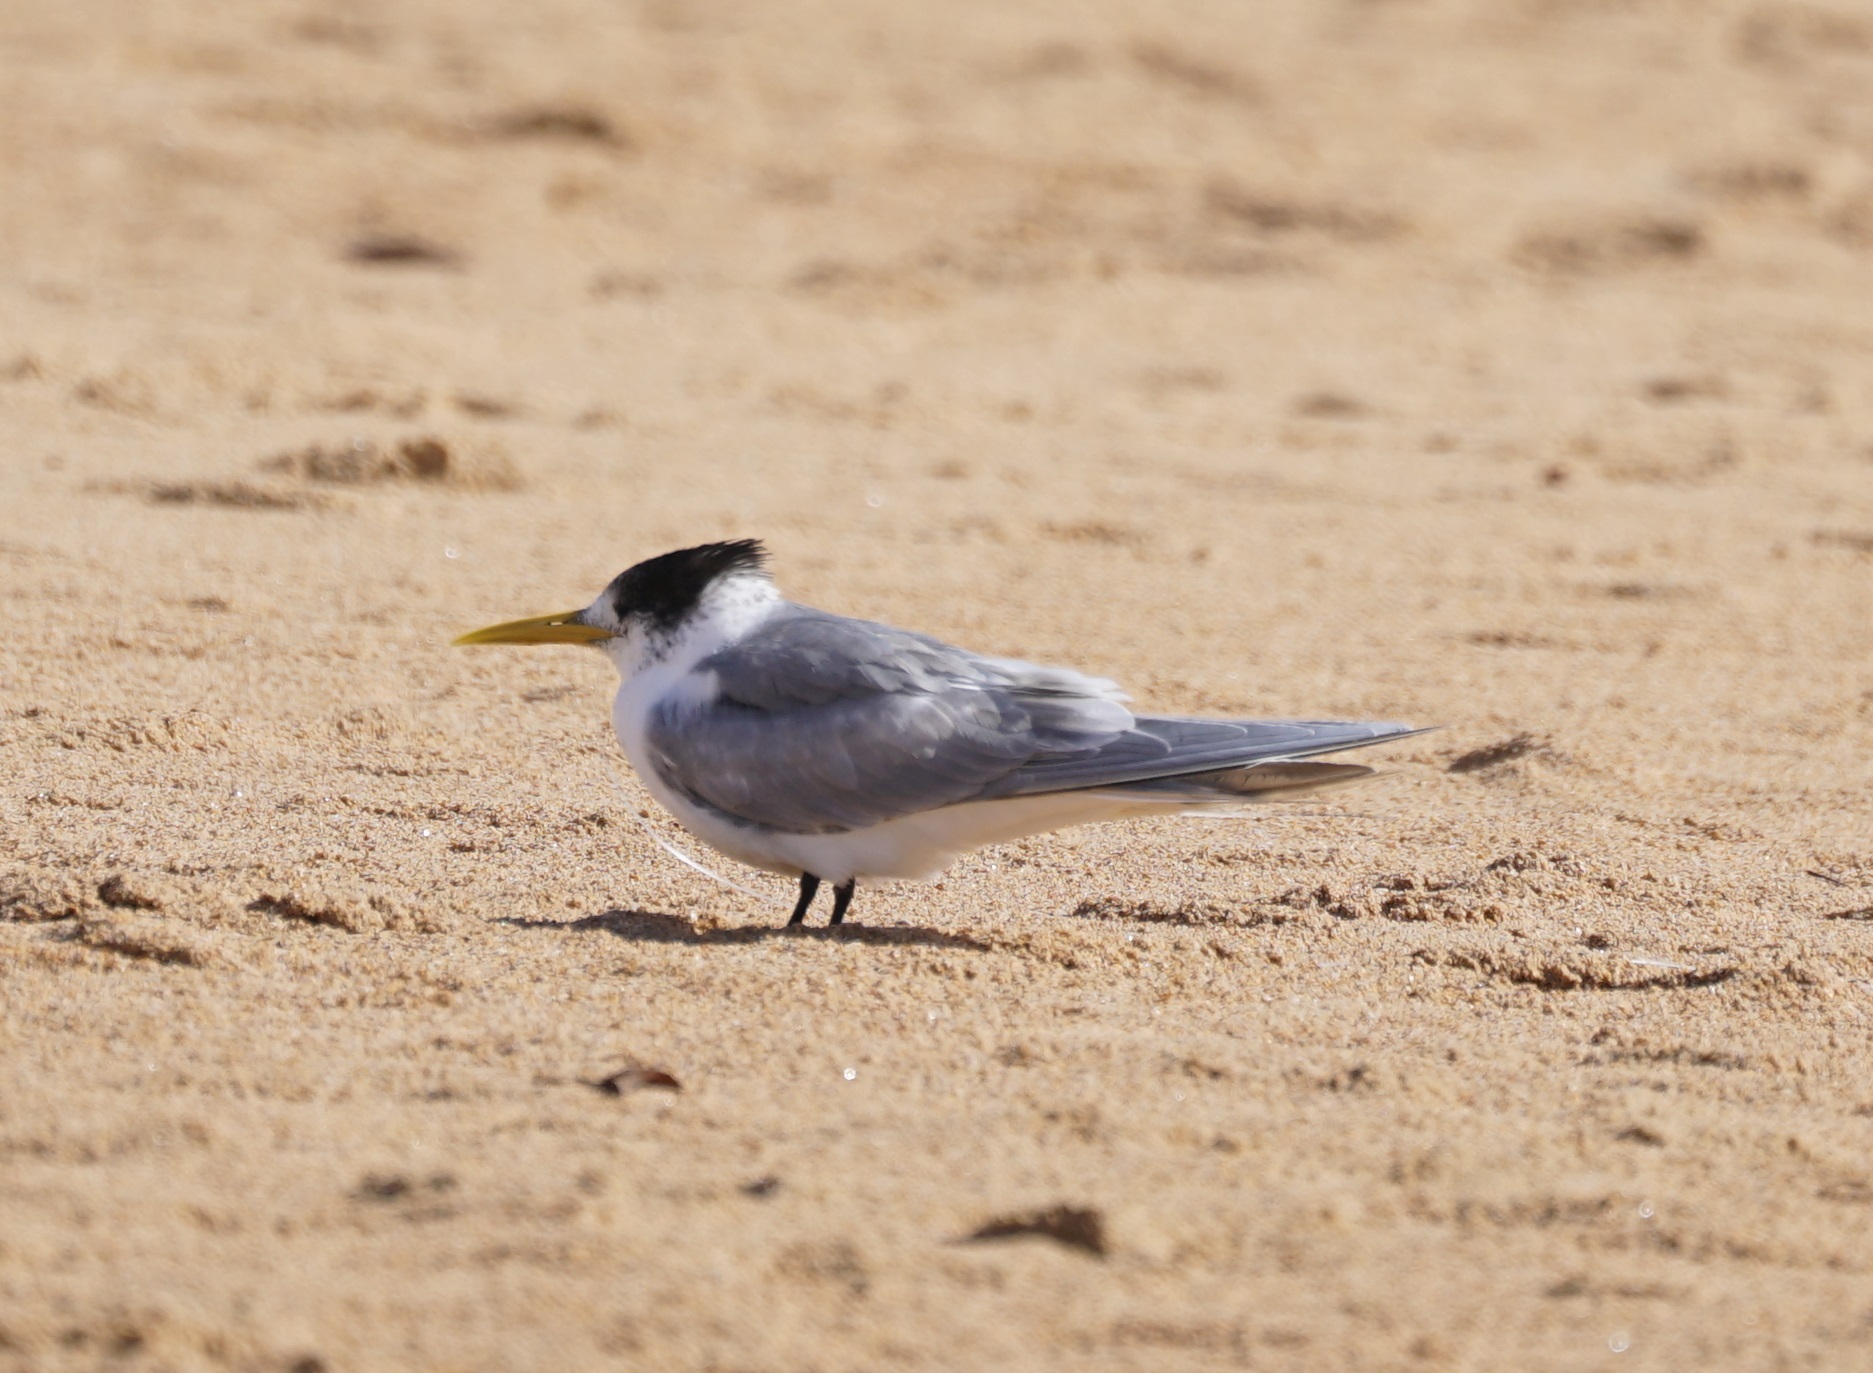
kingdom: Animalia
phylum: Chordata
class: Aves
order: Charadriiformes
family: Laridae
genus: Thalasseus
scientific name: Thalasseus bergii
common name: Greater crested tern
